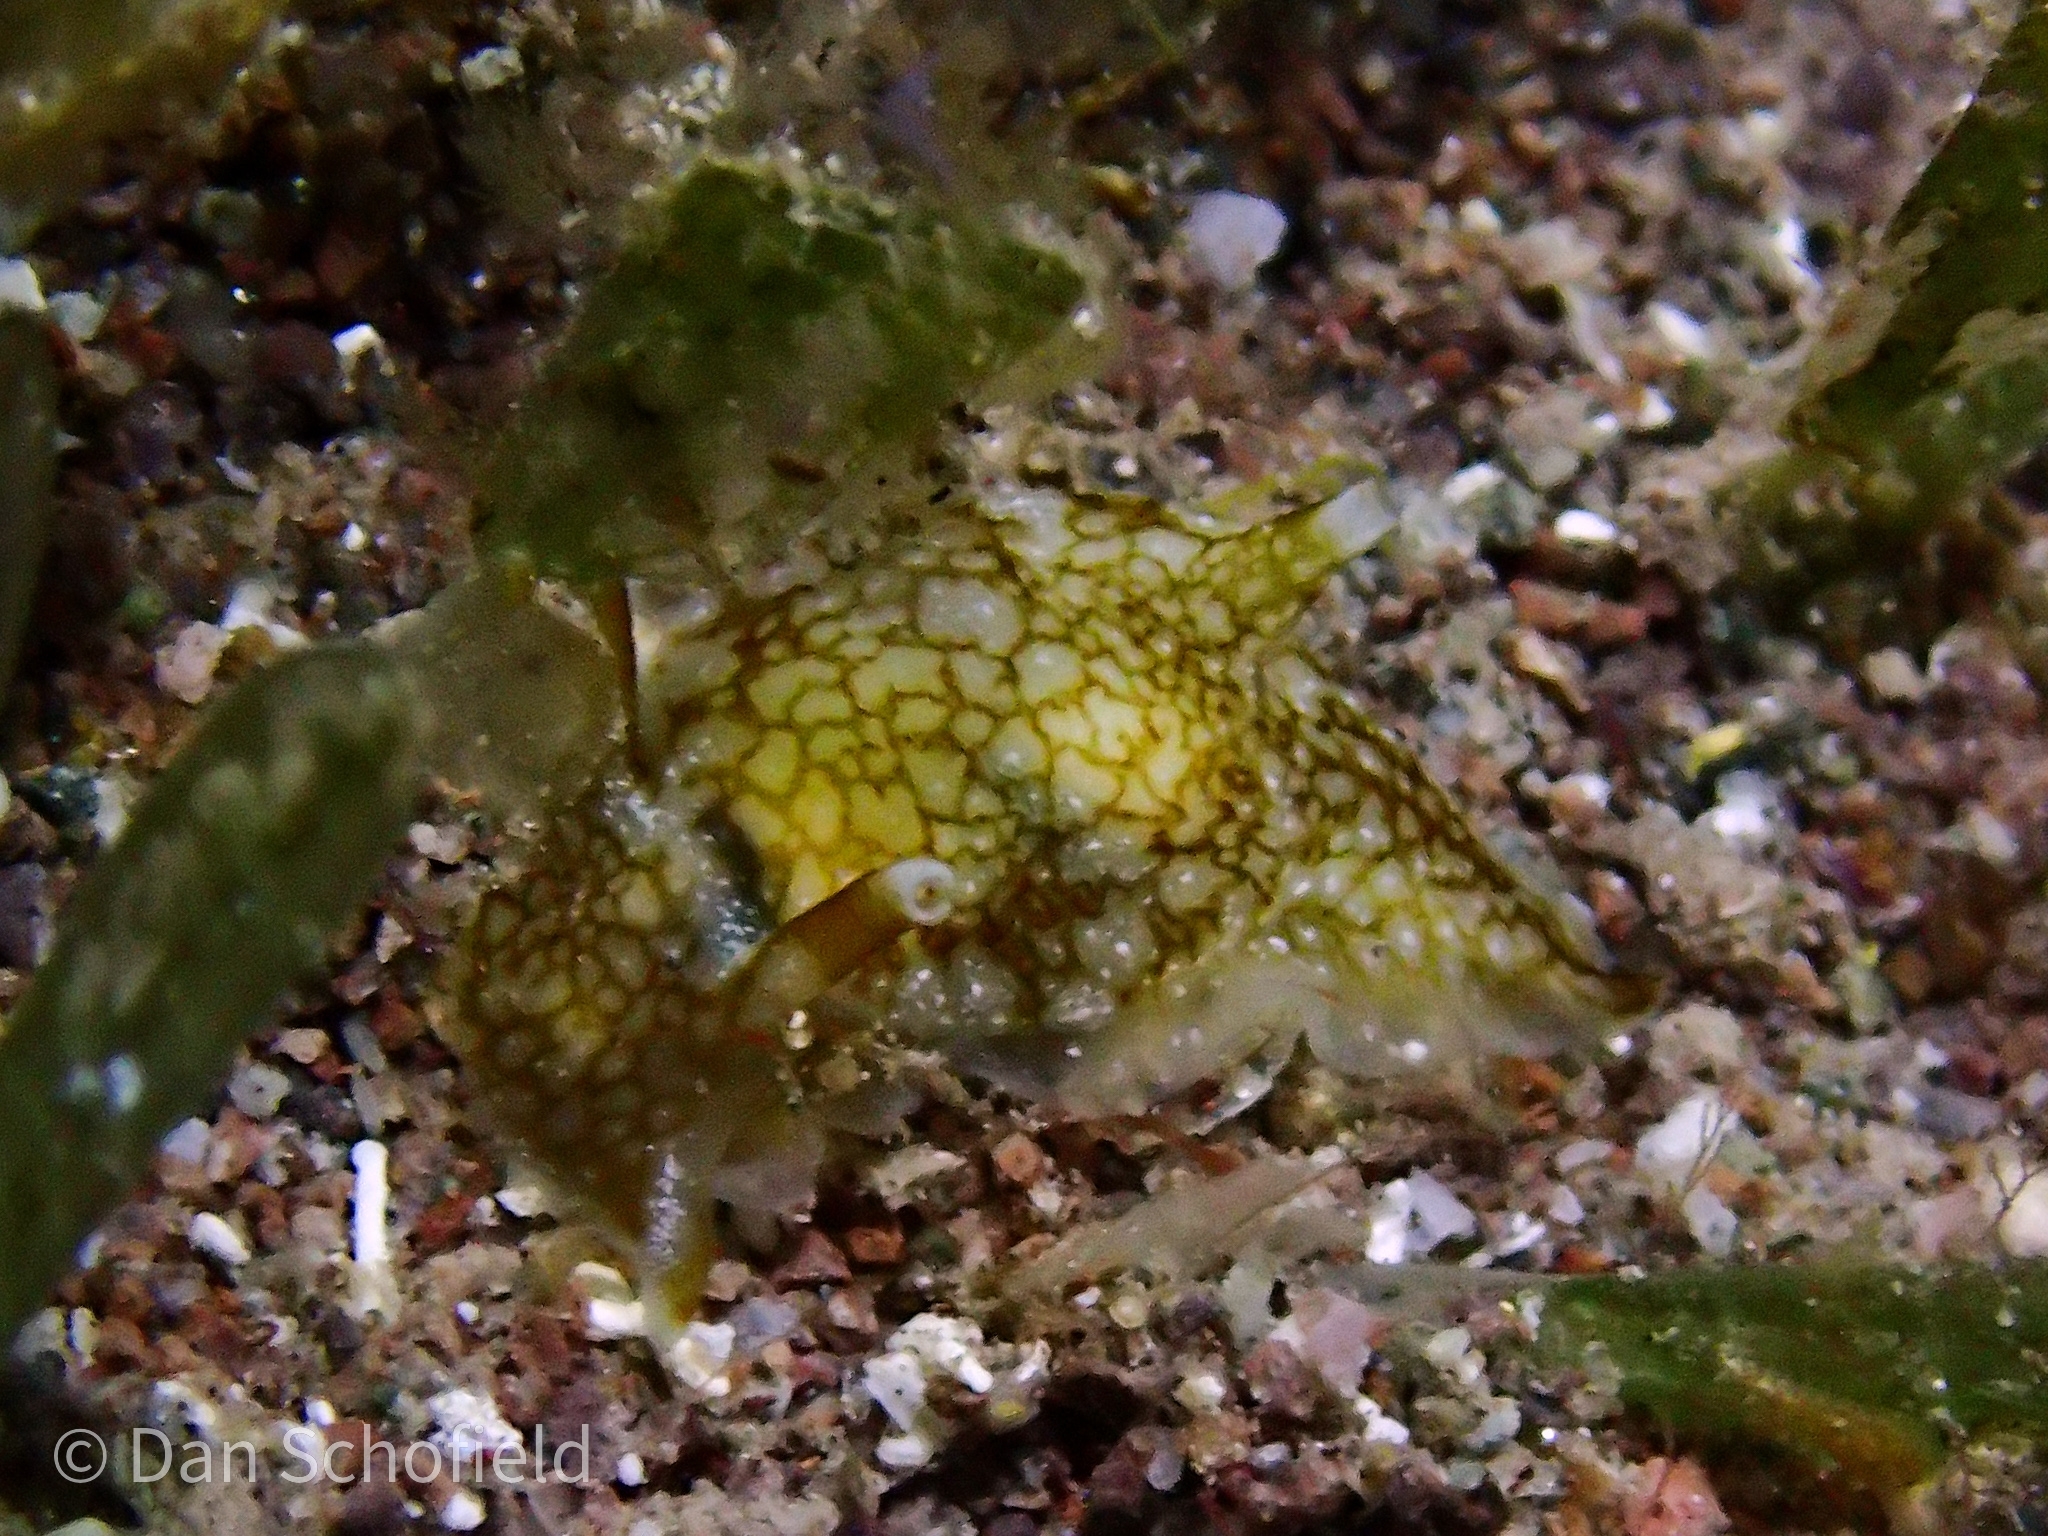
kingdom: Animalia
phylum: Mollusca
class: Gastropoda
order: Pleurobranchida
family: Pleurobranchaeidae
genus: Pleurobranchaea
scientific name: Pleurobranchaea inconspicua
